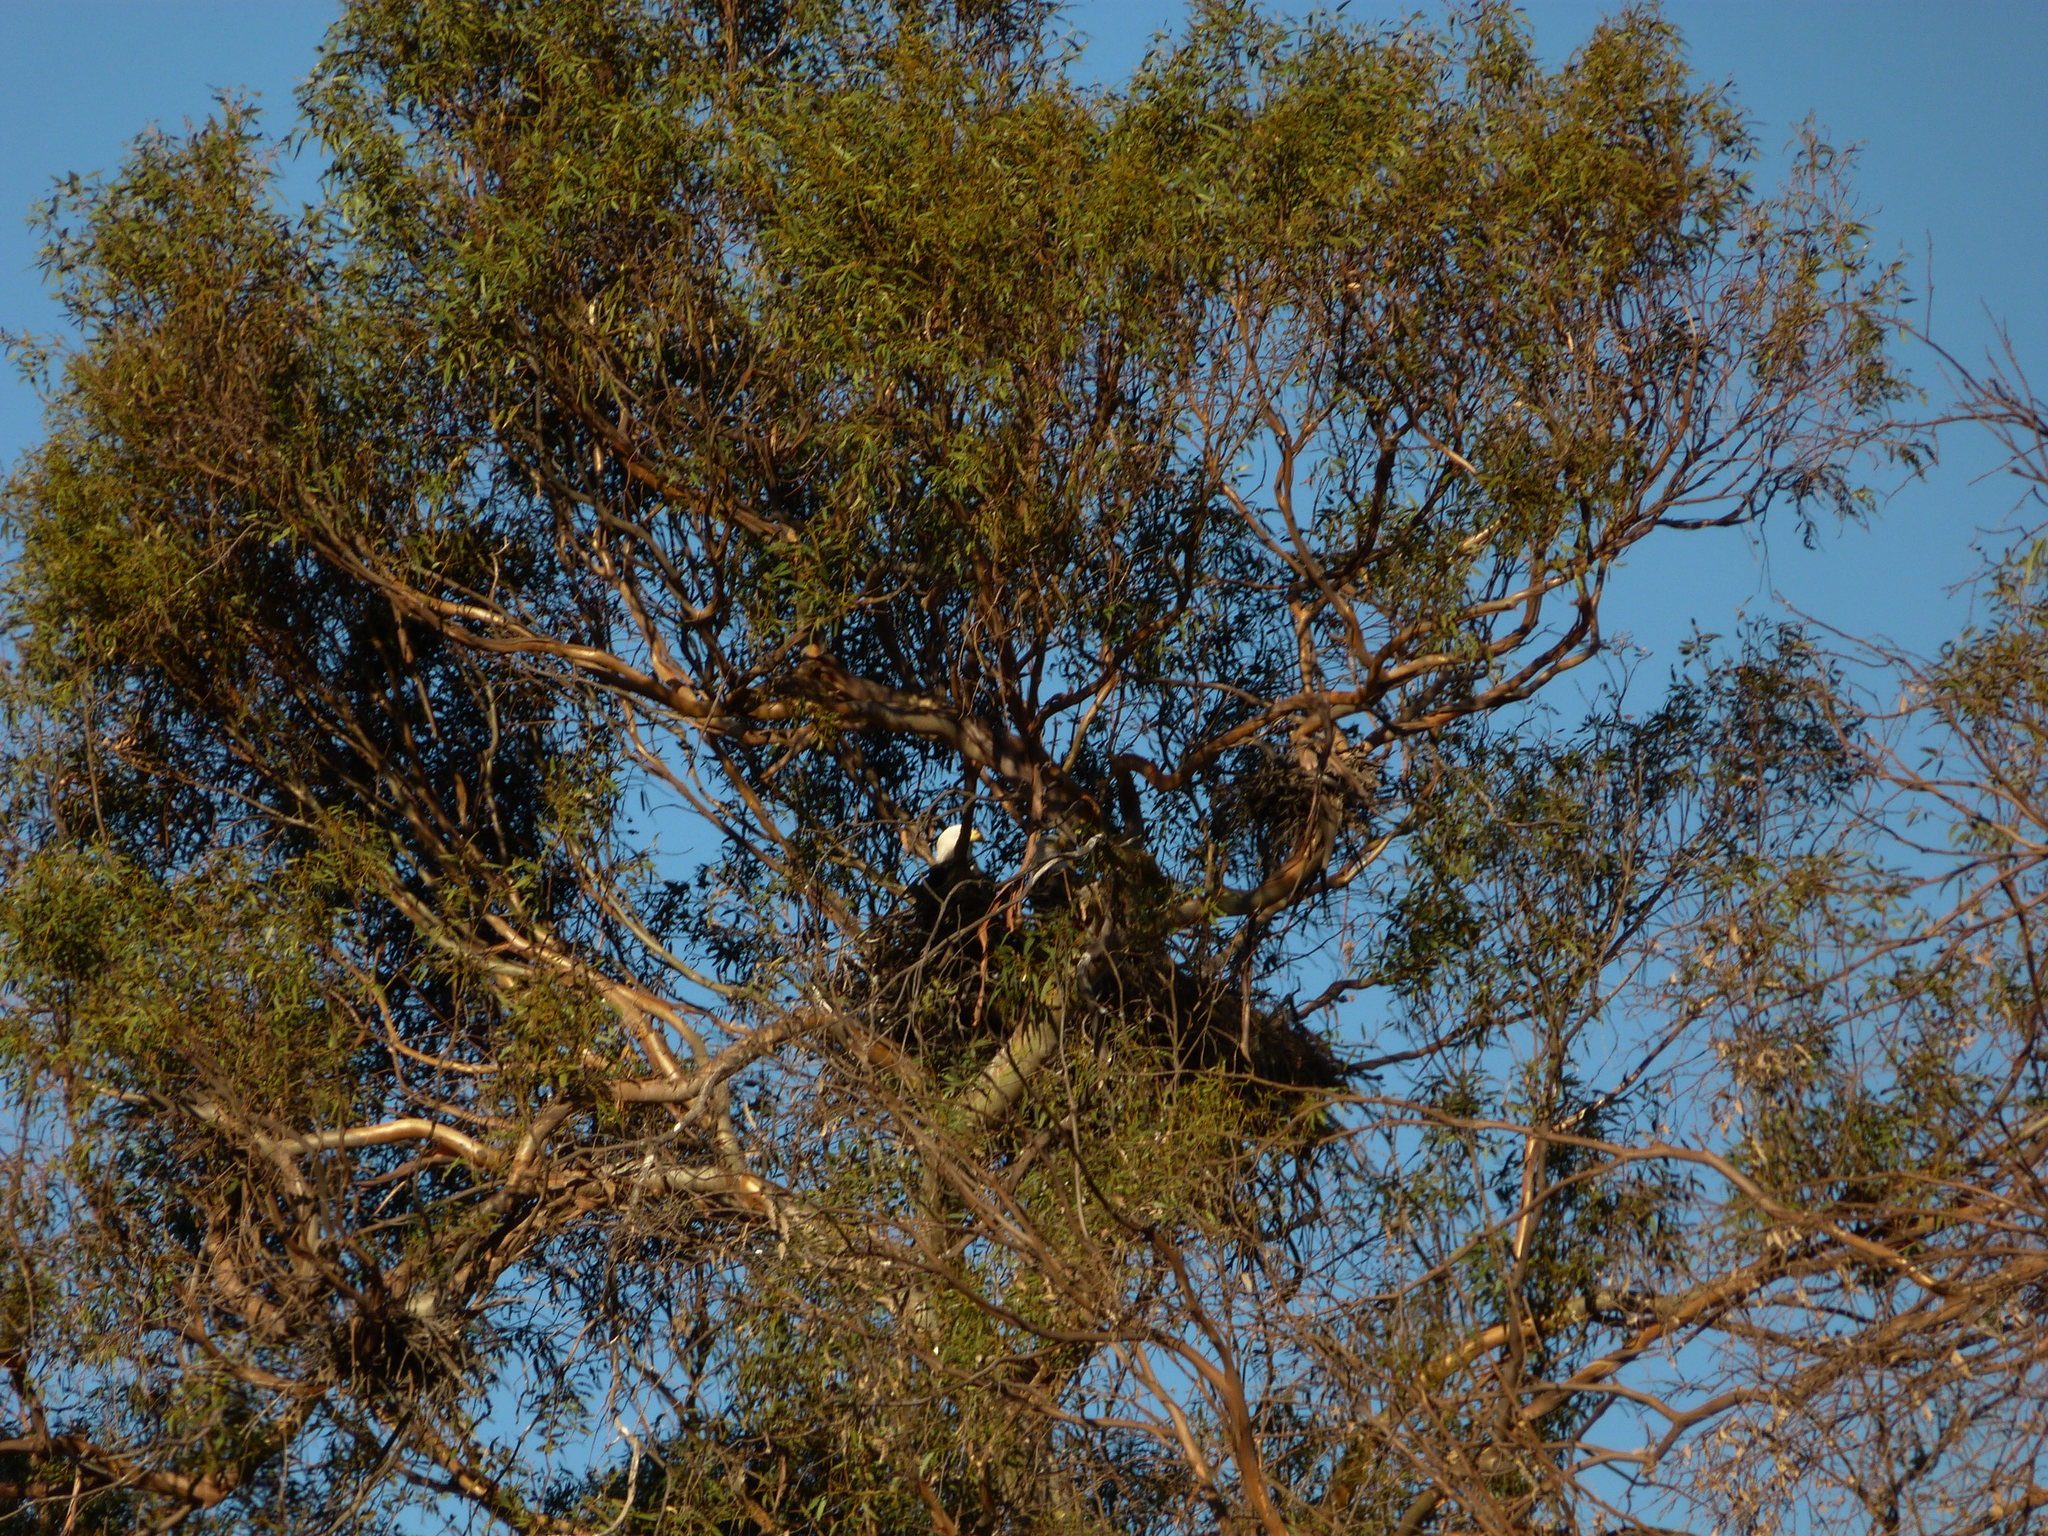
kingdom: Animalia
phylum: Chordata
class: Aves
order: Accipitriformes
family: Accipitridae
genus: Haliaeetus
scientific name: Haliaeetus leucocephalus
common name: Bald eagle
